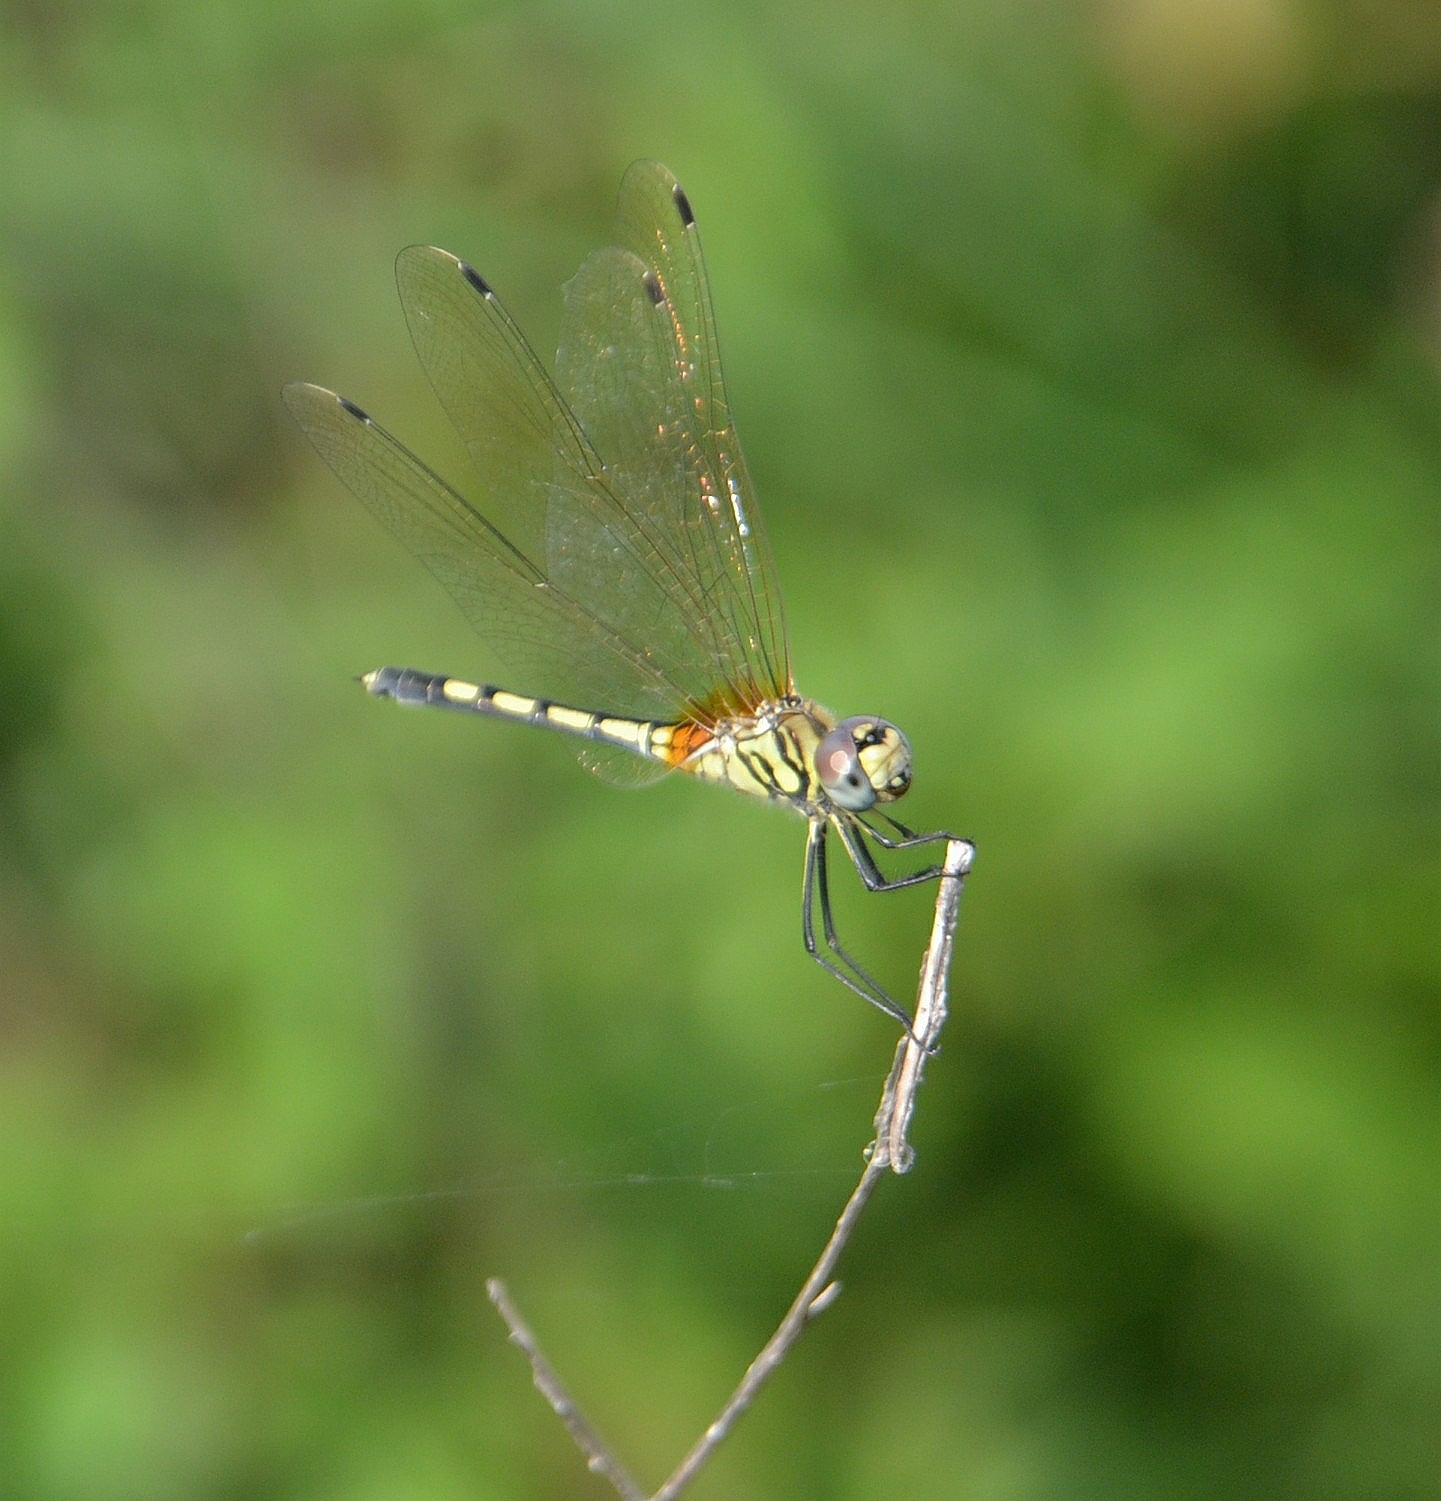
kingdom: Animalia
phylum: Arthropoda
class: Insecta
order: Odonata
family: Libellulidae
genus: Trithemis
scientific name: Trithemis pallidinervis
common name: Dancing dropwing
